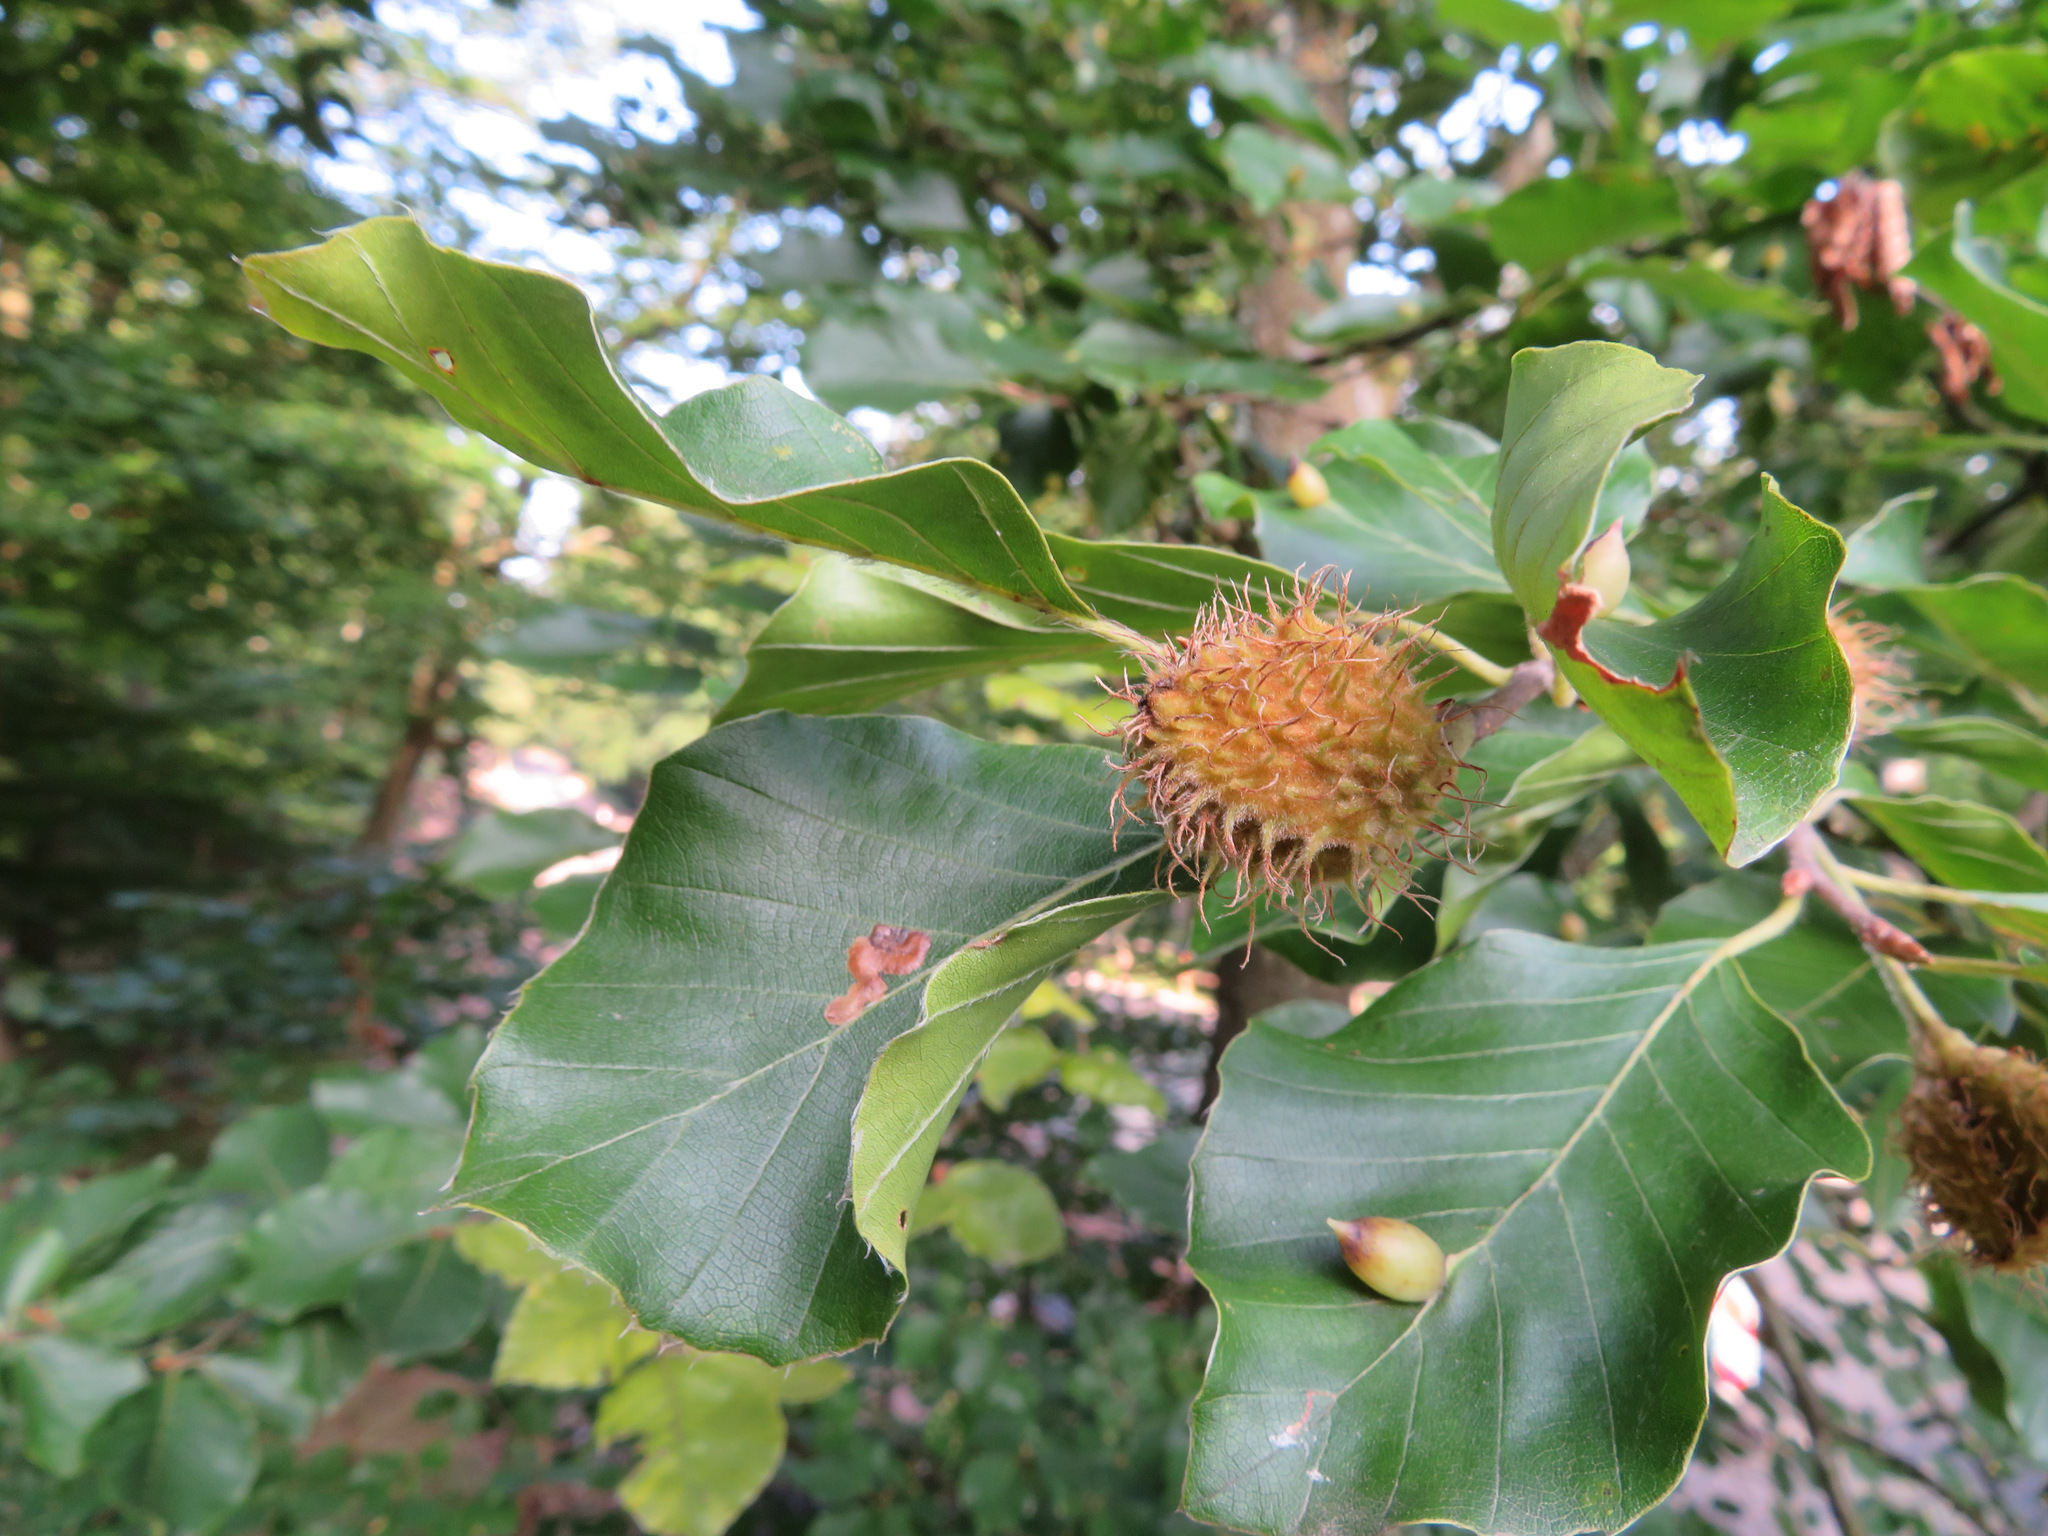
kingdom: Plantae
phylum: Tracheophyta
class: Magnoliopsida
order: Fagales
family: Fagaceae
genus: Fagus
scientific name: Fagus sylvatica
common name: Beech
